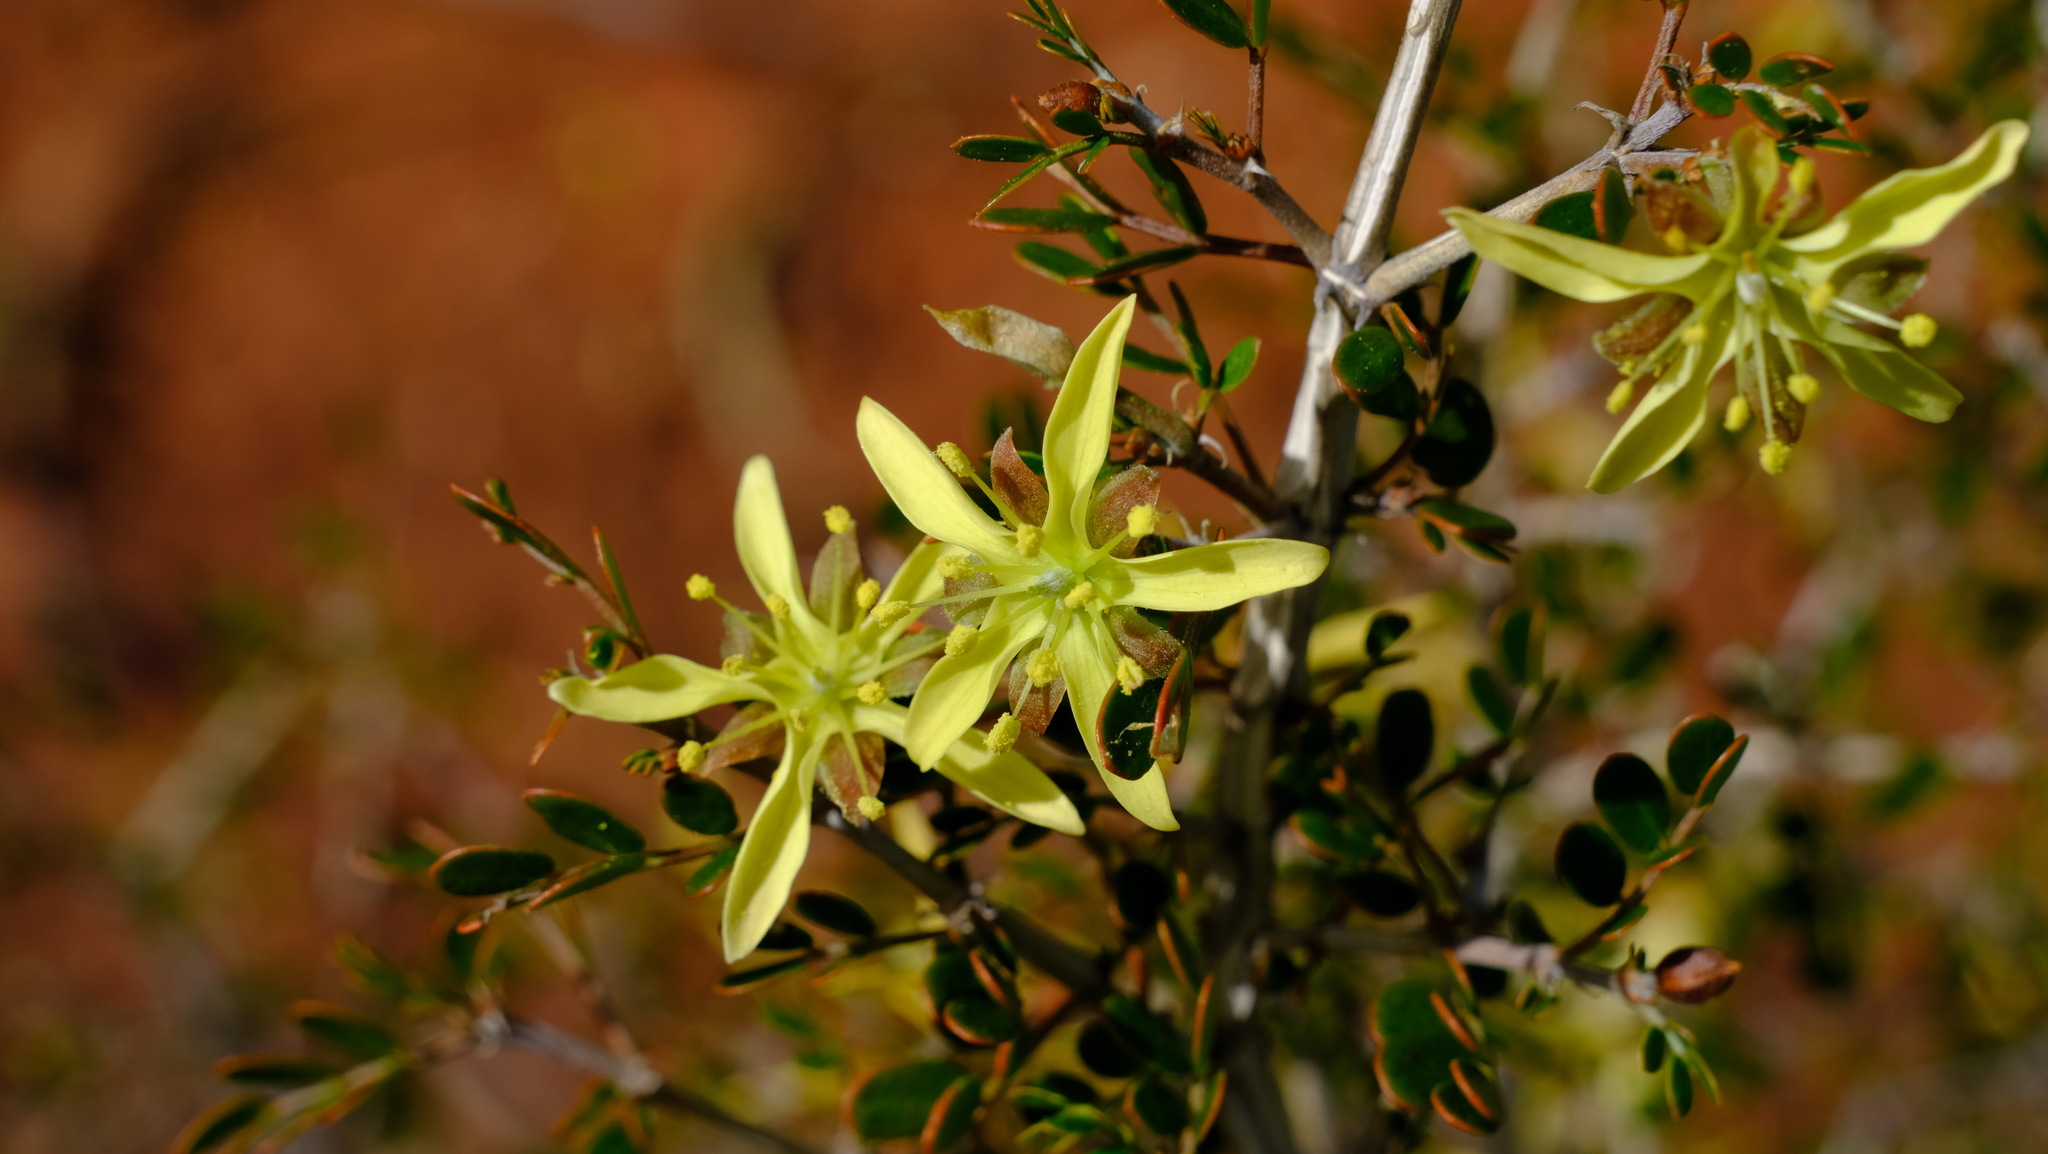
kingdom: Plantae
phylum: Tracheophyta
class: Magnoliopsida
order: Zygophyllales
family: Zygophyllaceae
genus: Tribulus
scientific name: Tribulus suberosus
